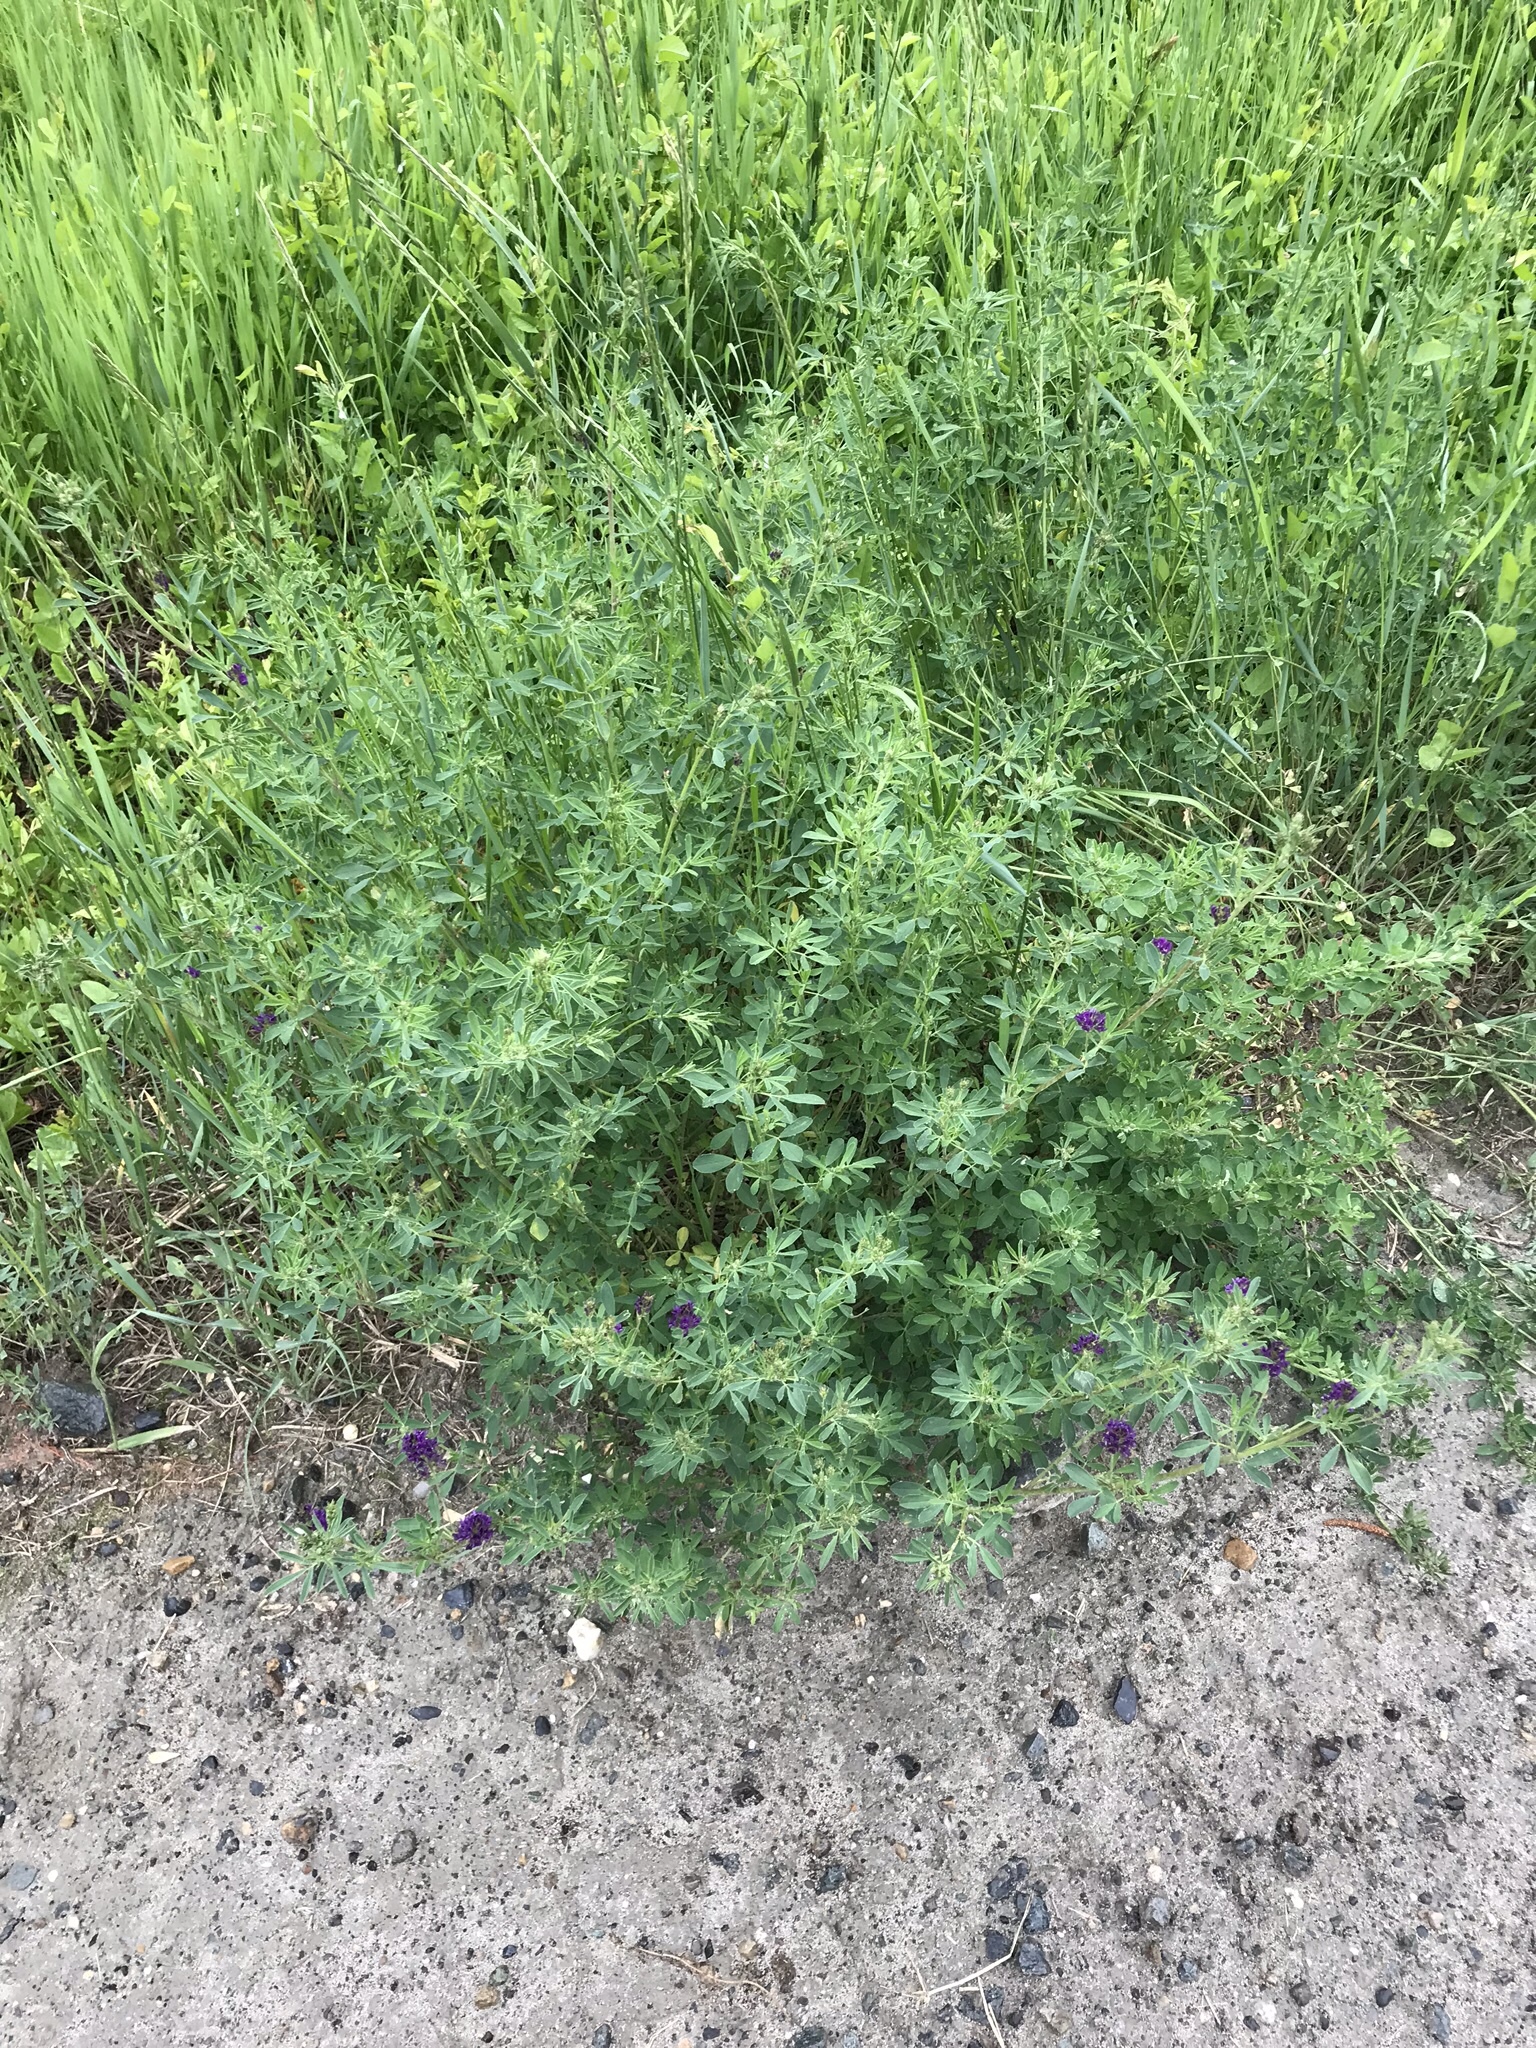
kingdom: Plantae
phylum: Tracheophyta
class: Magnoliopsida
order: Fabales
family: Fabaceae
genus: Medicago
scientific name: Medicago sativa
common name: Alfalfa
